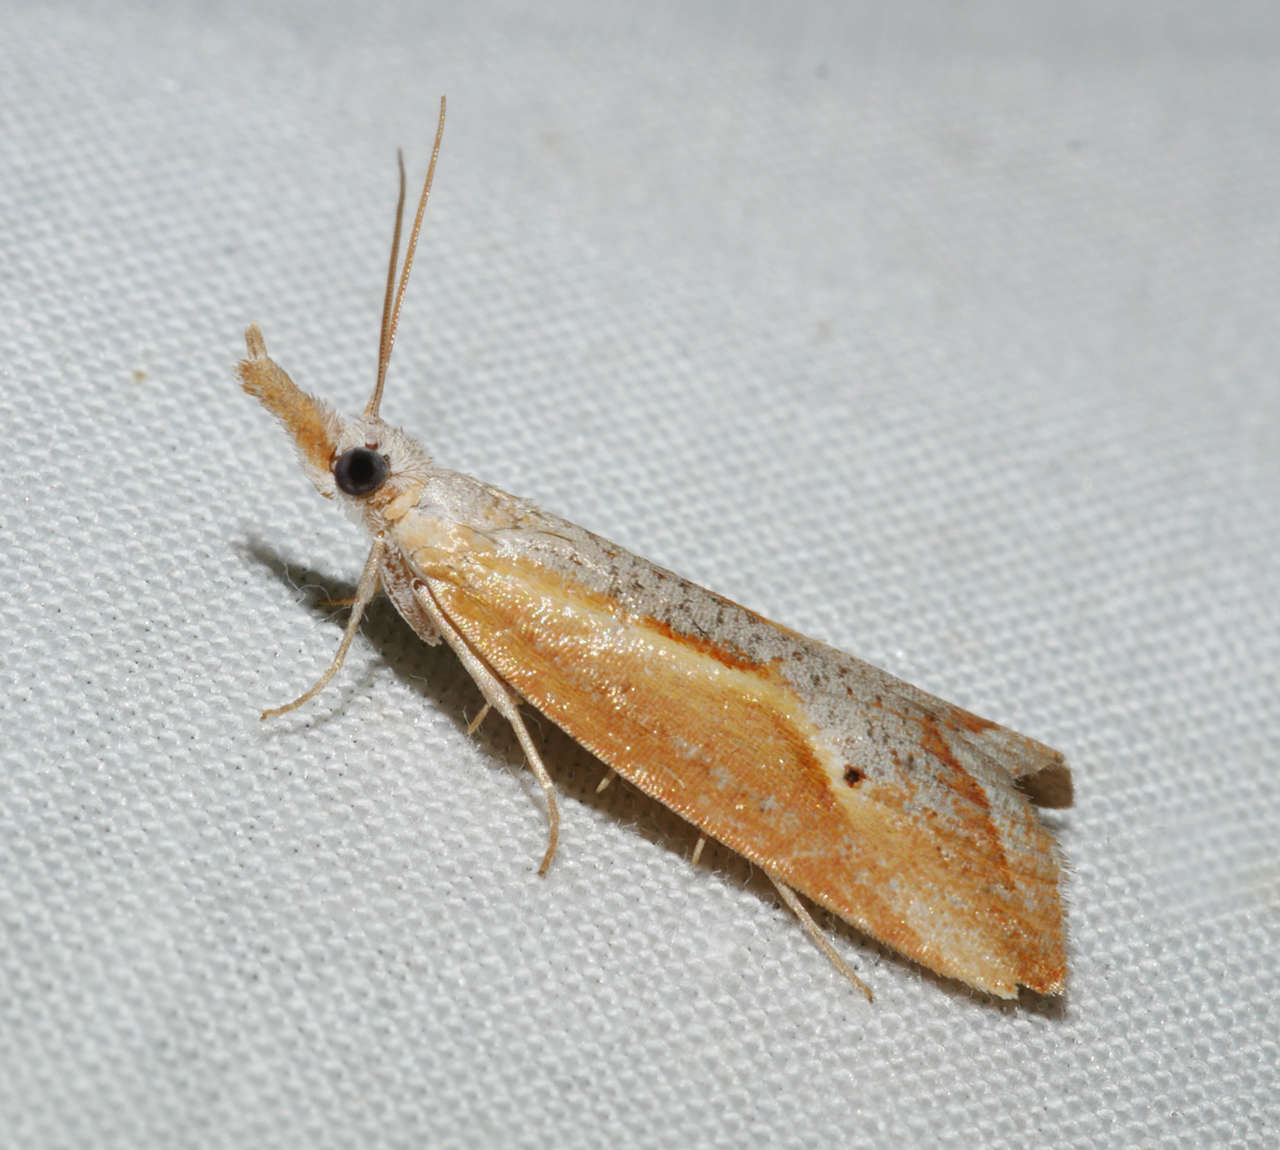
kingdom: Animalia
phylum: Arthropoda
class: Insecta
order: Lepidoptera
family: Tortricidae
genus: Arotrophora
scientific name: Arotrophora arcuatalis
